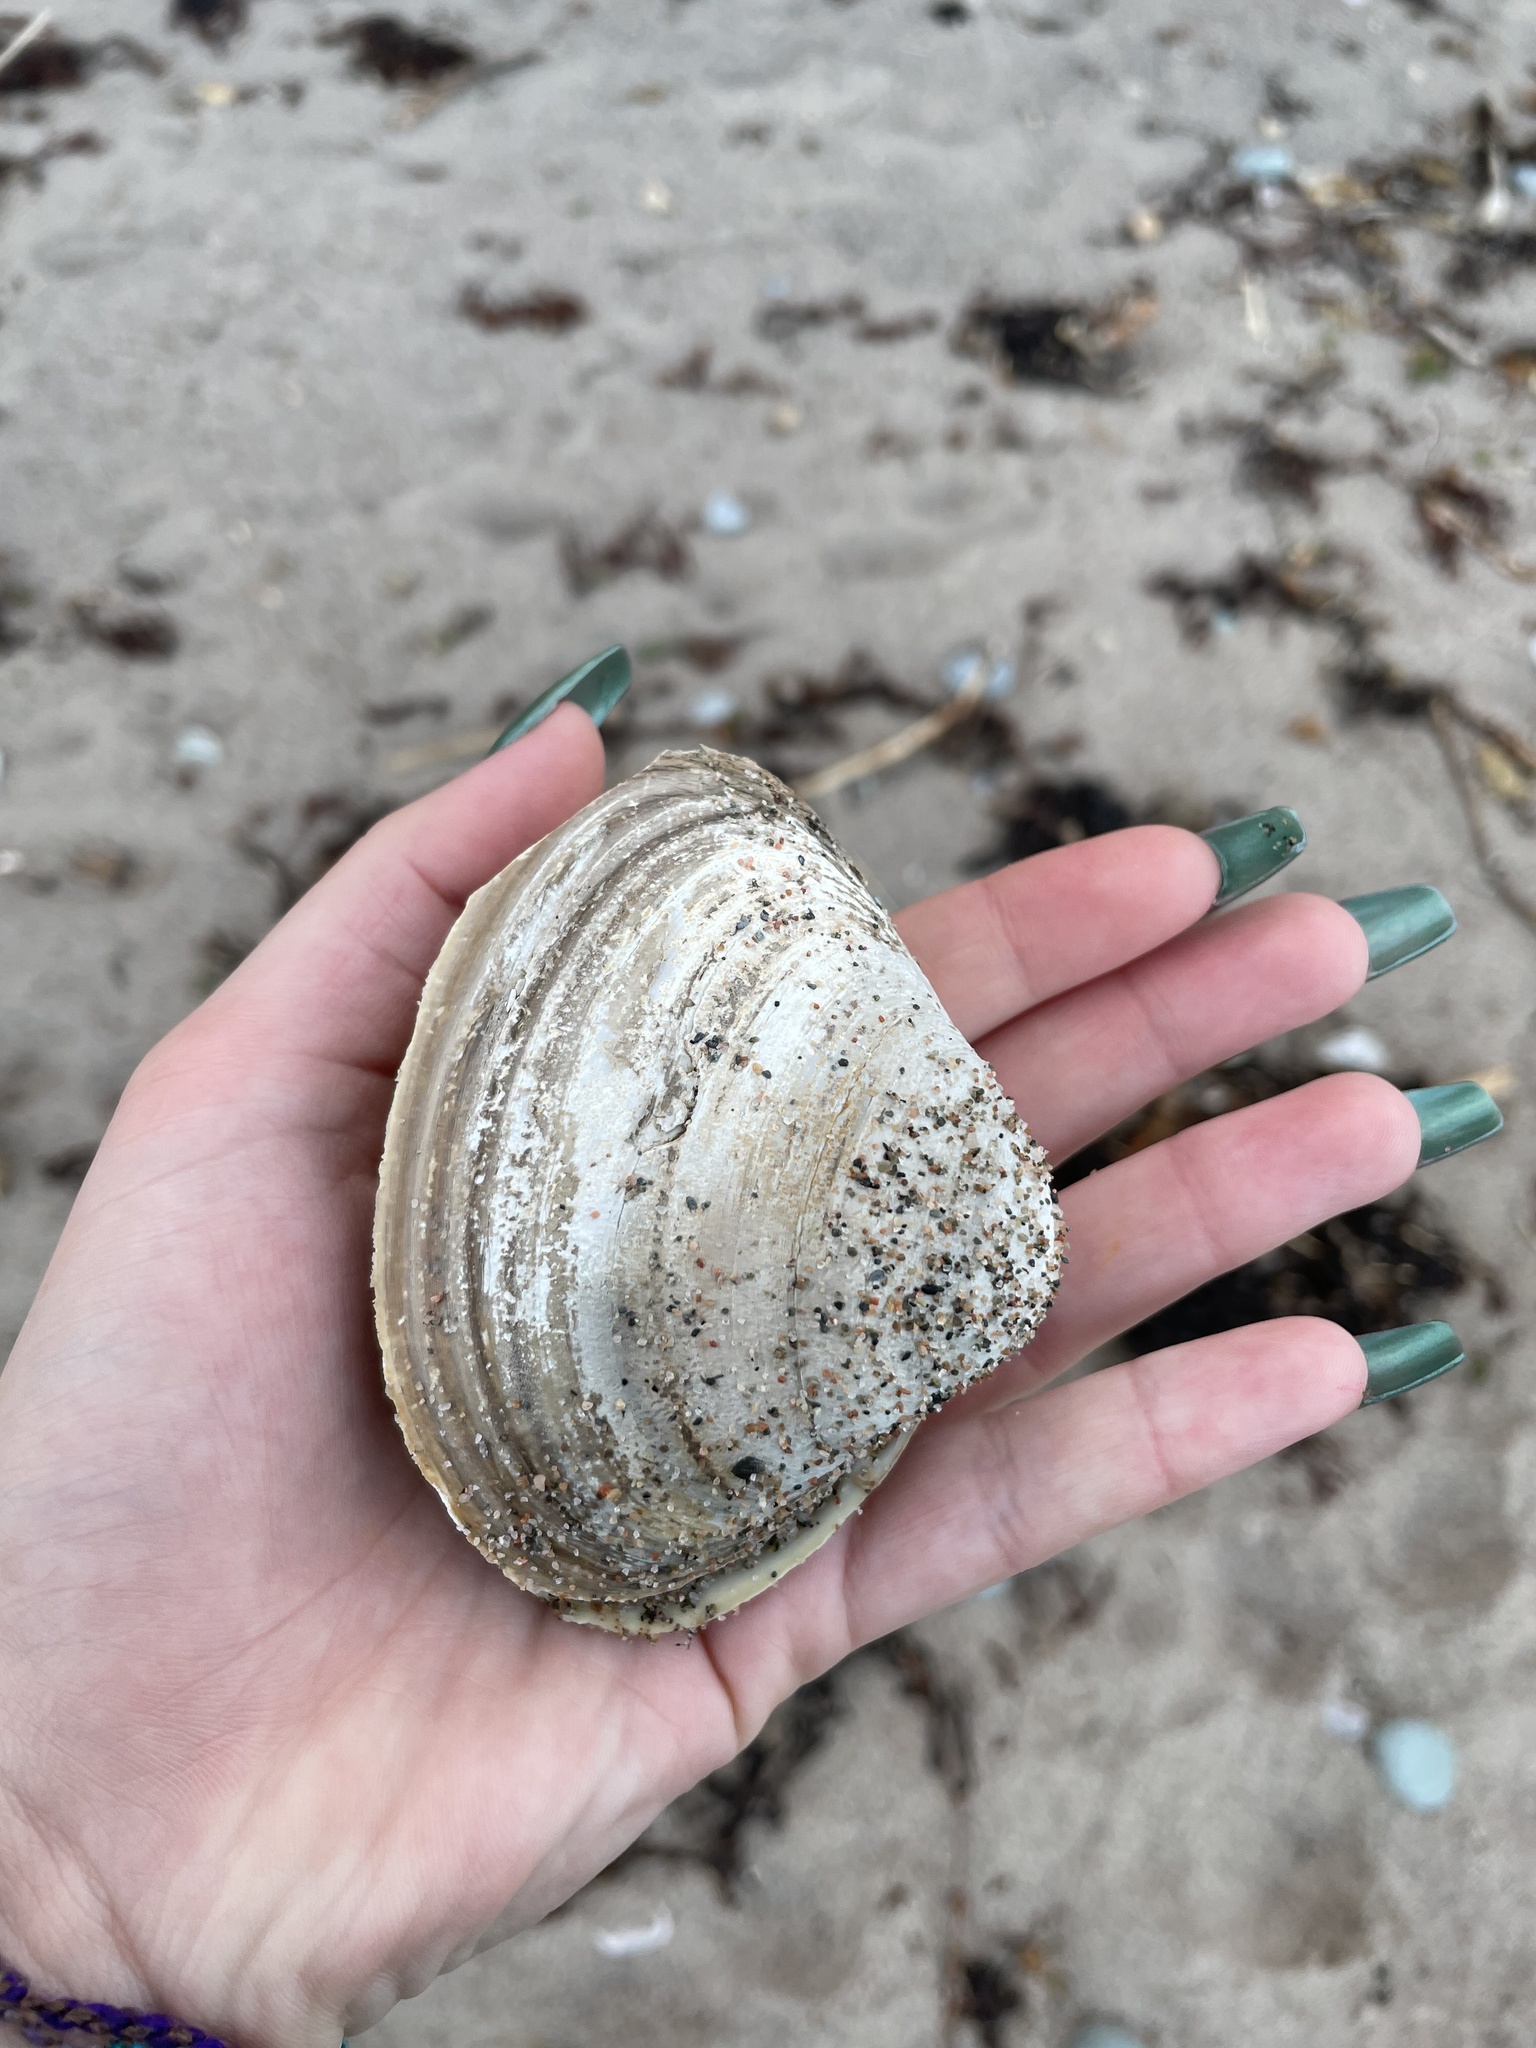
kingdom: Animalia
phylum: Mollusca
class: Bivalvia
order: Venerida
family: Mactridae
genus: Spisula
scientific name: Spisula solidissima
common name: Atlantic surf clam
